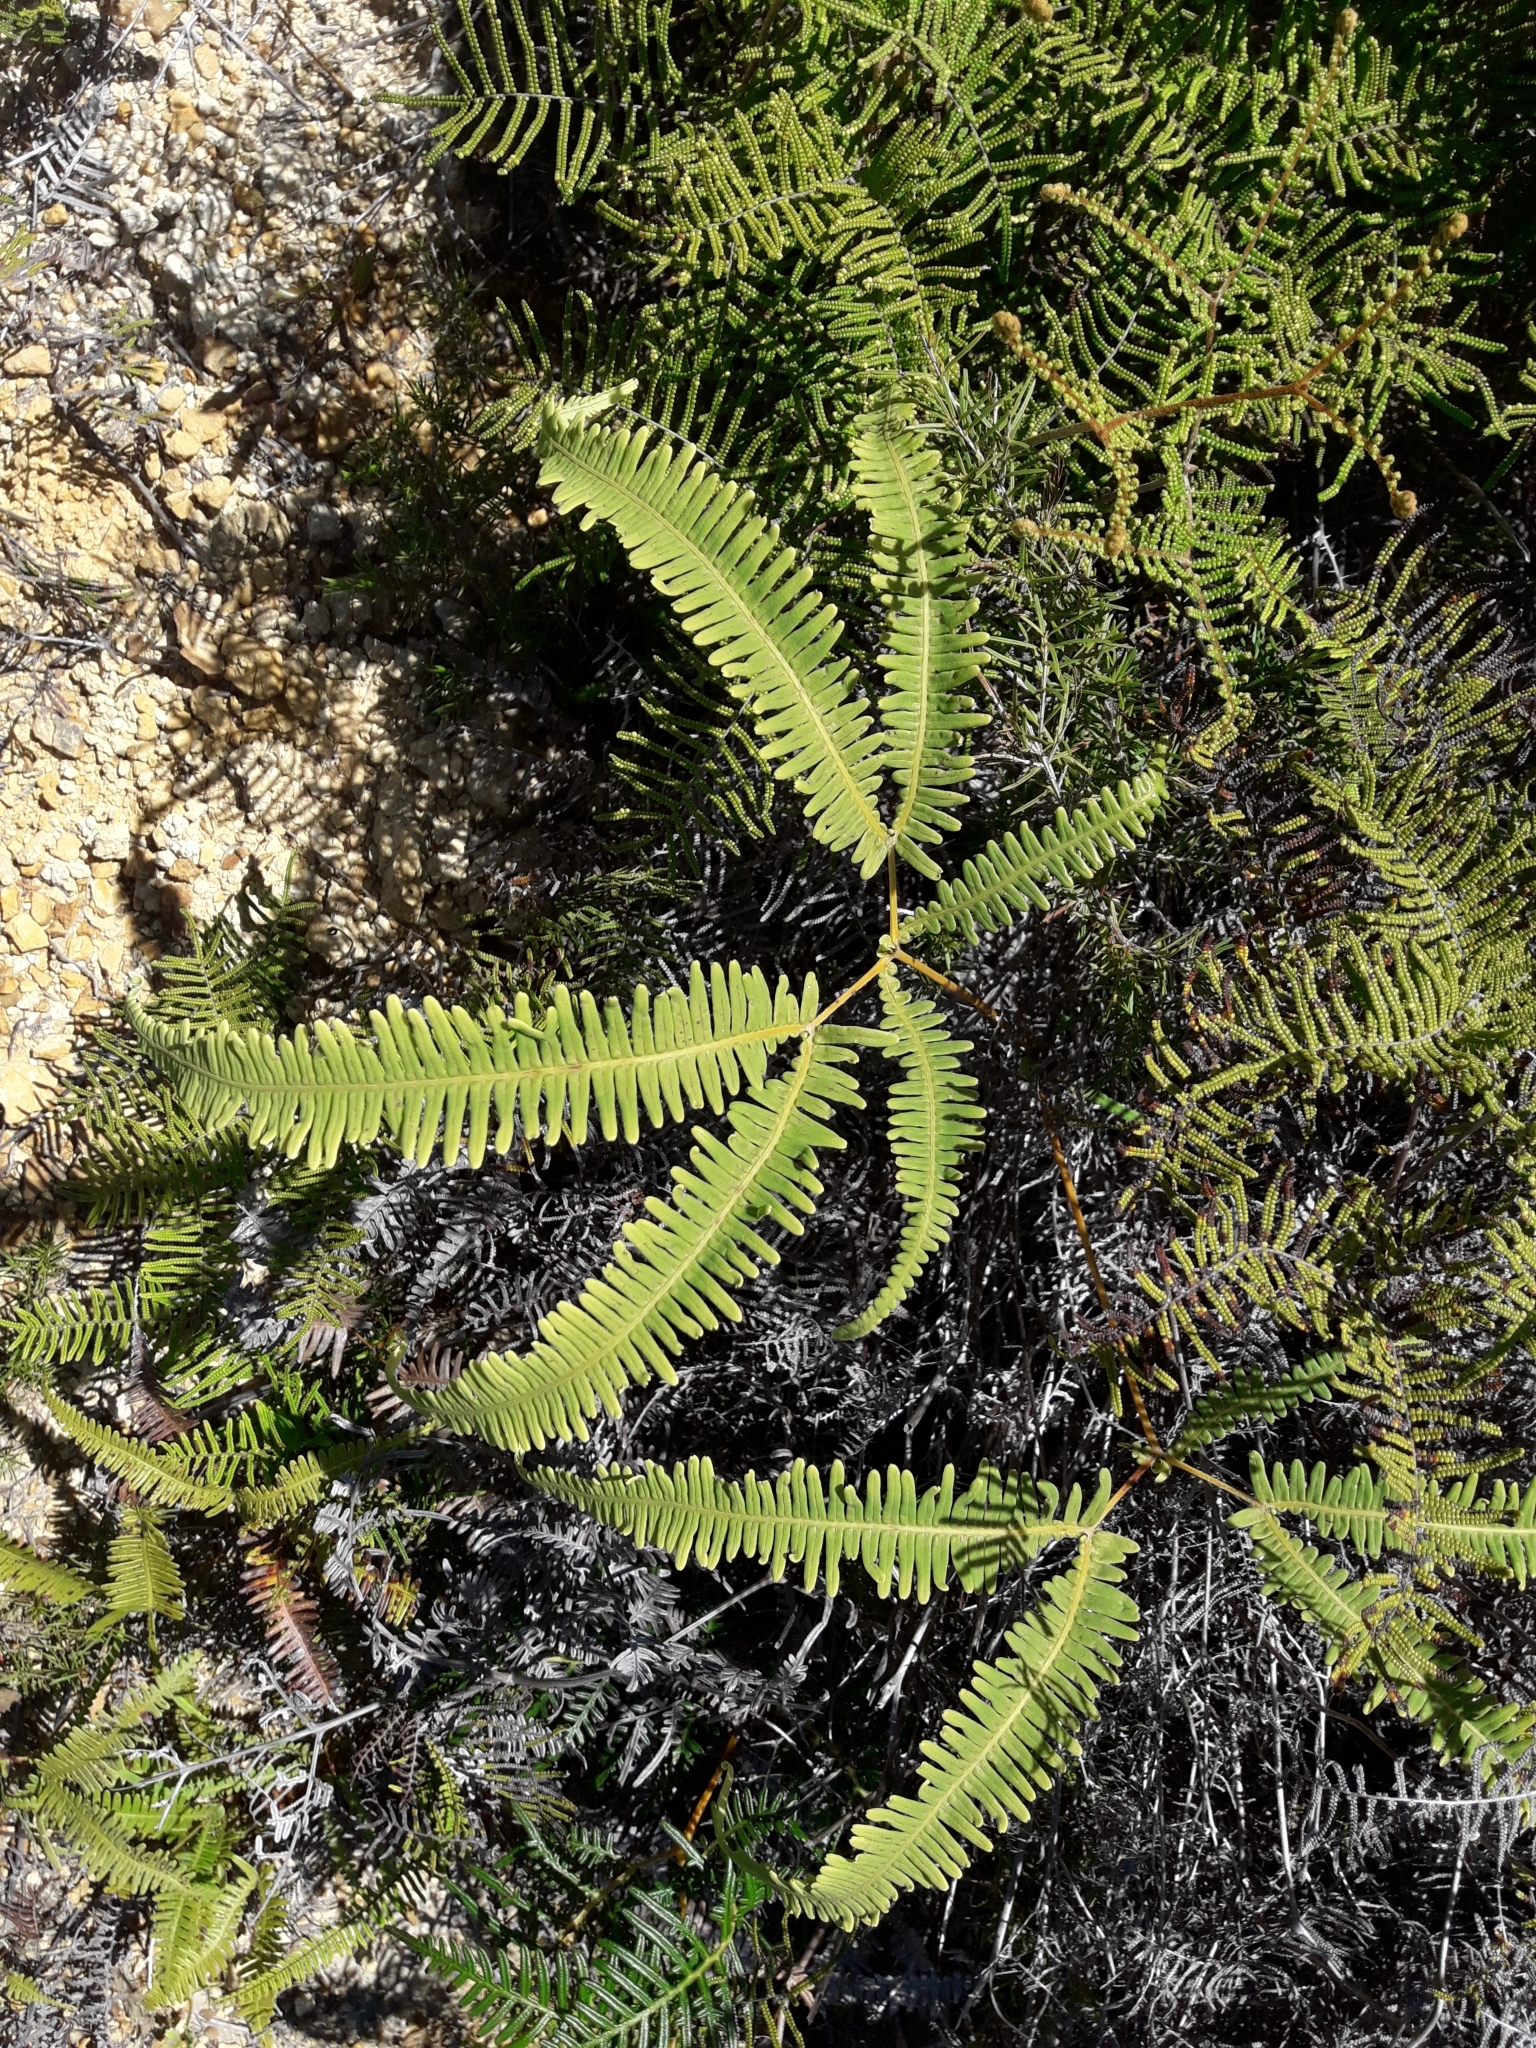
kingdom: Plantae
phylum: Tracheophyta
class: Polypodiopsida
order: Gleicheniales
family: Gleicheniaceae
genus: Dicranopteris
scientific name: Dicranopteris linearis
